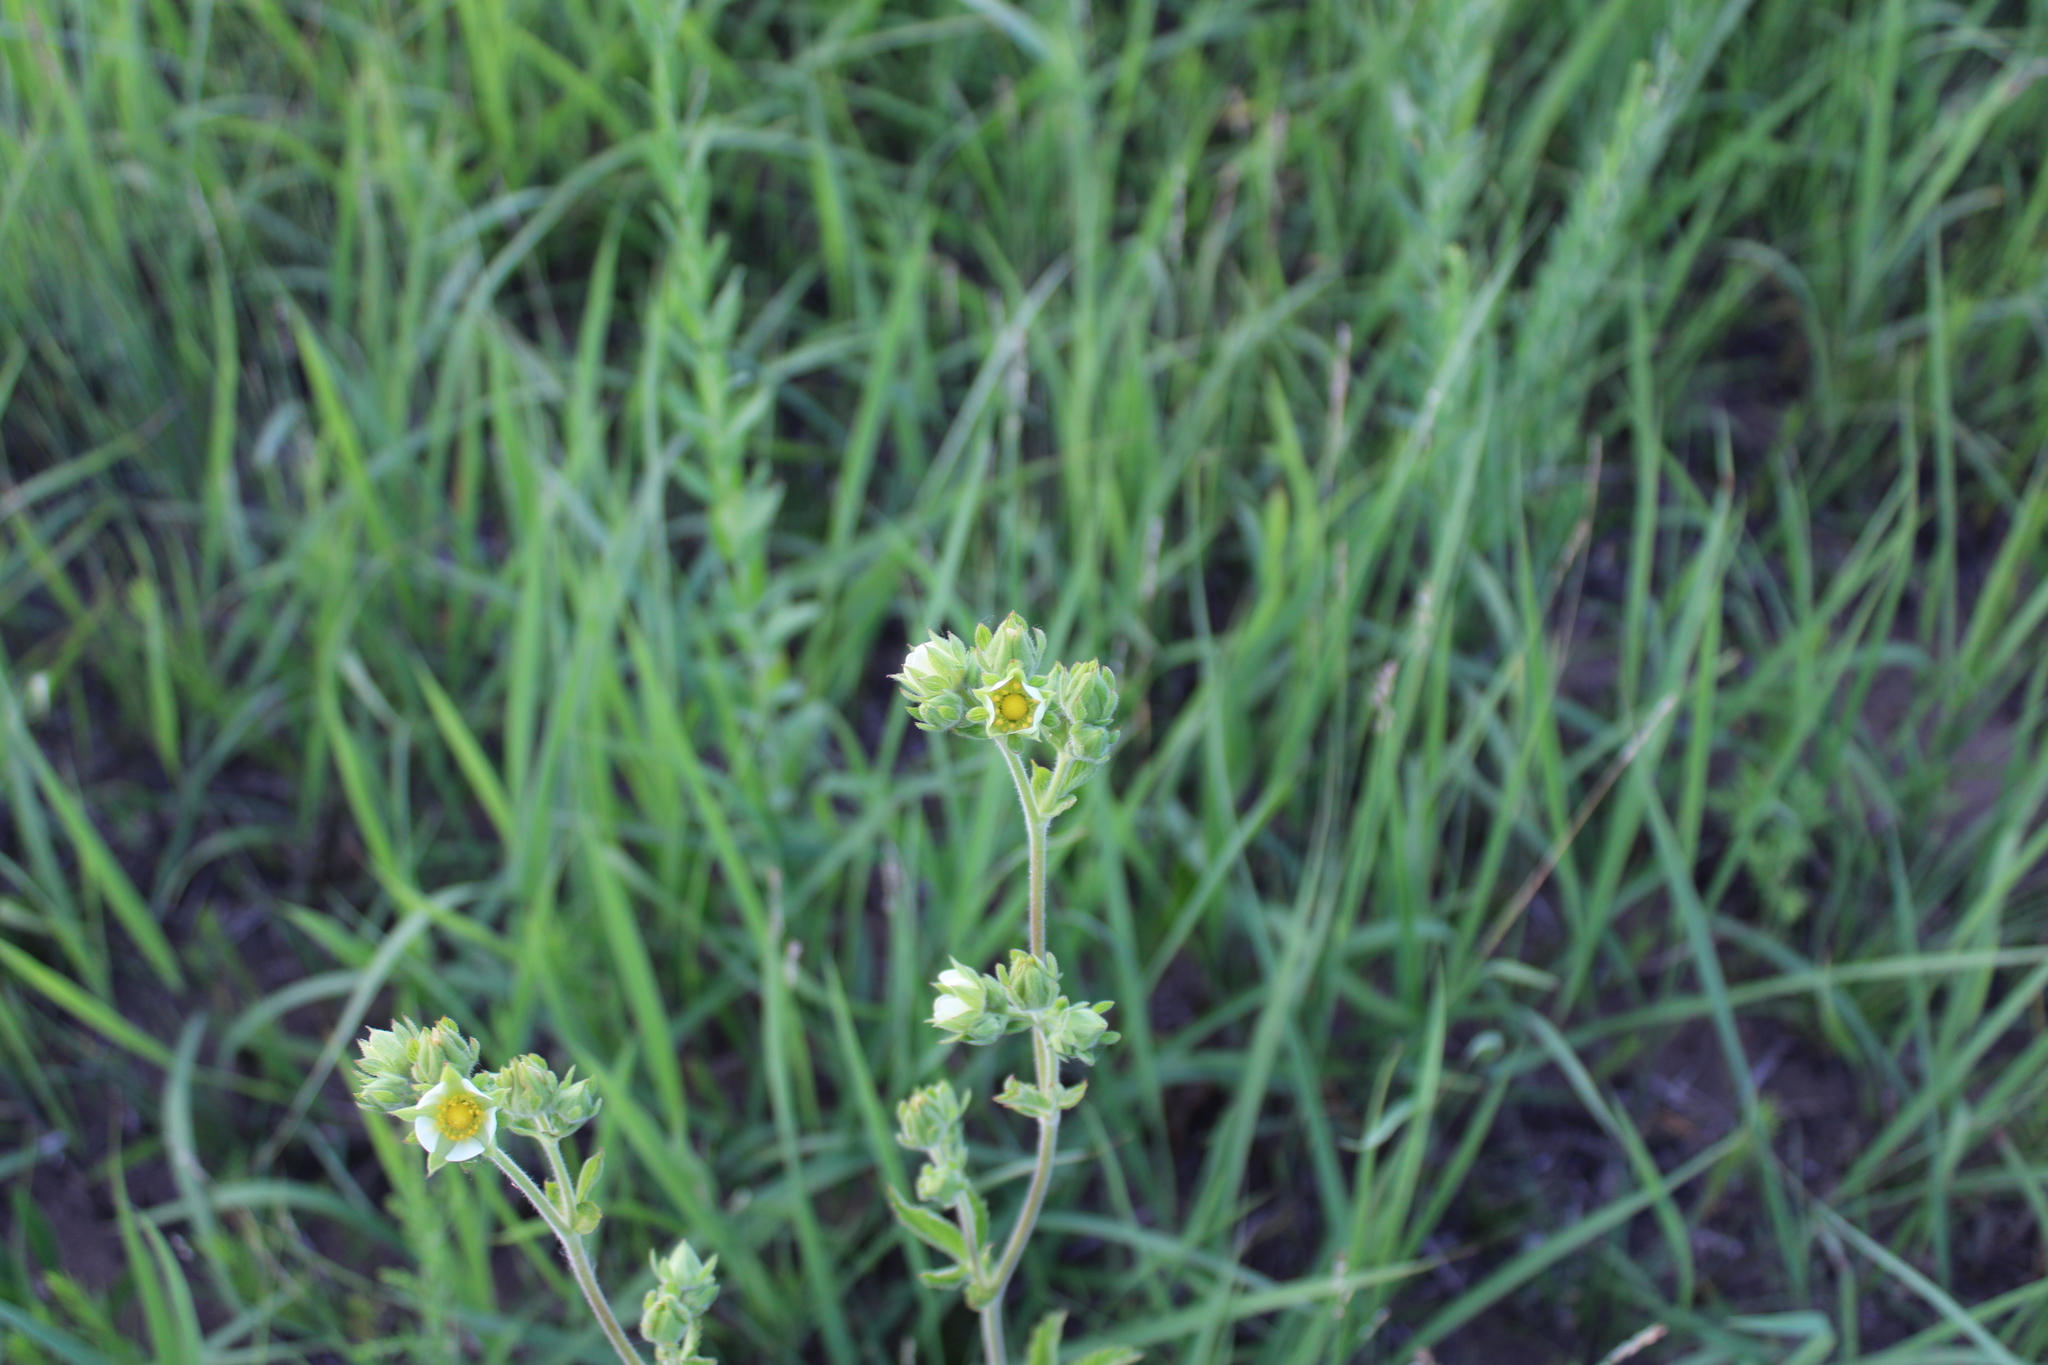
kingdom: Plantae
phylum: Tracheophyta
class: Magnoliopsida
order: Rosales
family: Rosaceae
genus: Drymocallis
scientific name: Drymocallis arguta
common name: Tall cinquefoil
